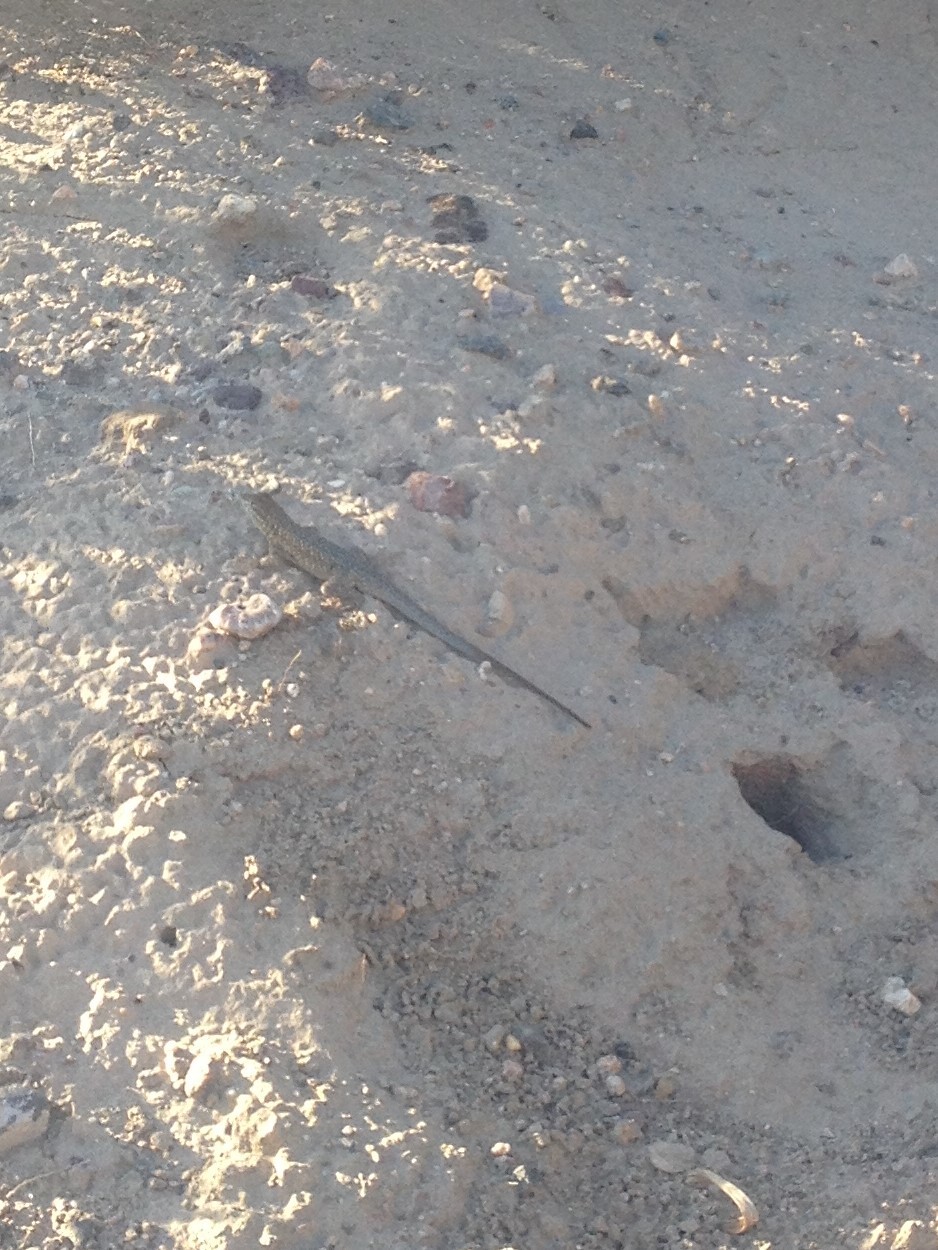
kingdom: Animalia
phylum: Chordata
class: Squamata
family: Phrynosomatidae
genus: Uta
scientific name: Uta stansburiana
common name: Side-blotched lizard
